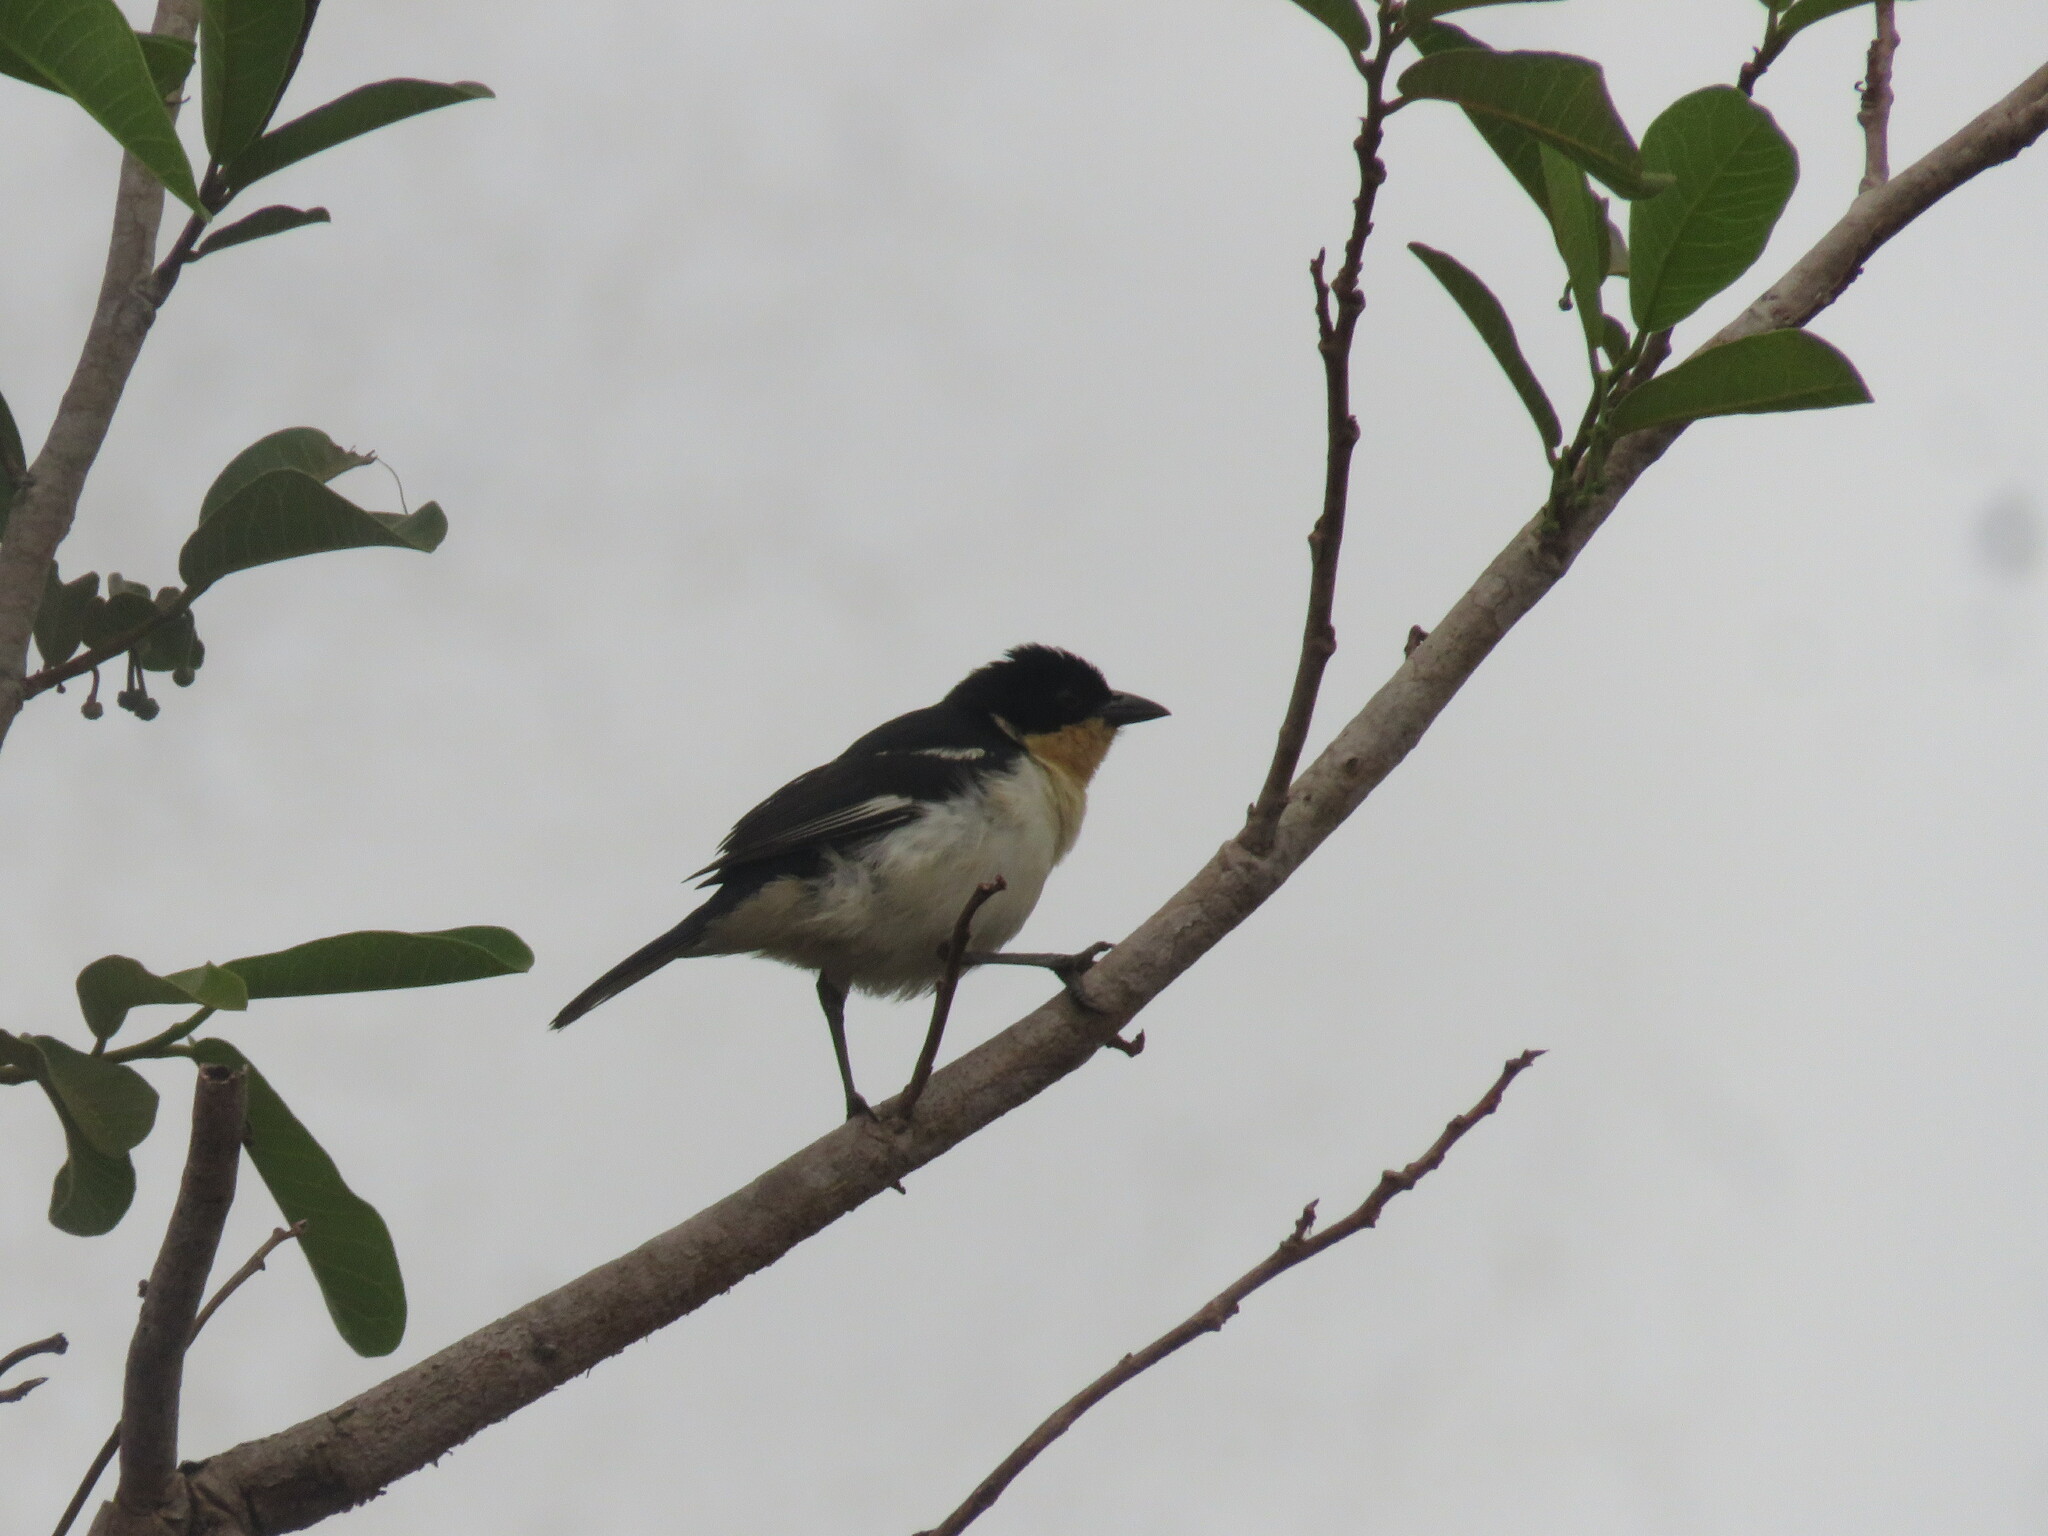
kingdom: Animalia
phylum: Chordata
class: Aves
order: Passeriformes
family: Thraupidae
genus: Cypsnagra
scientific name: Cypsnagra hirundinacea
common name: White-rumped tanager
